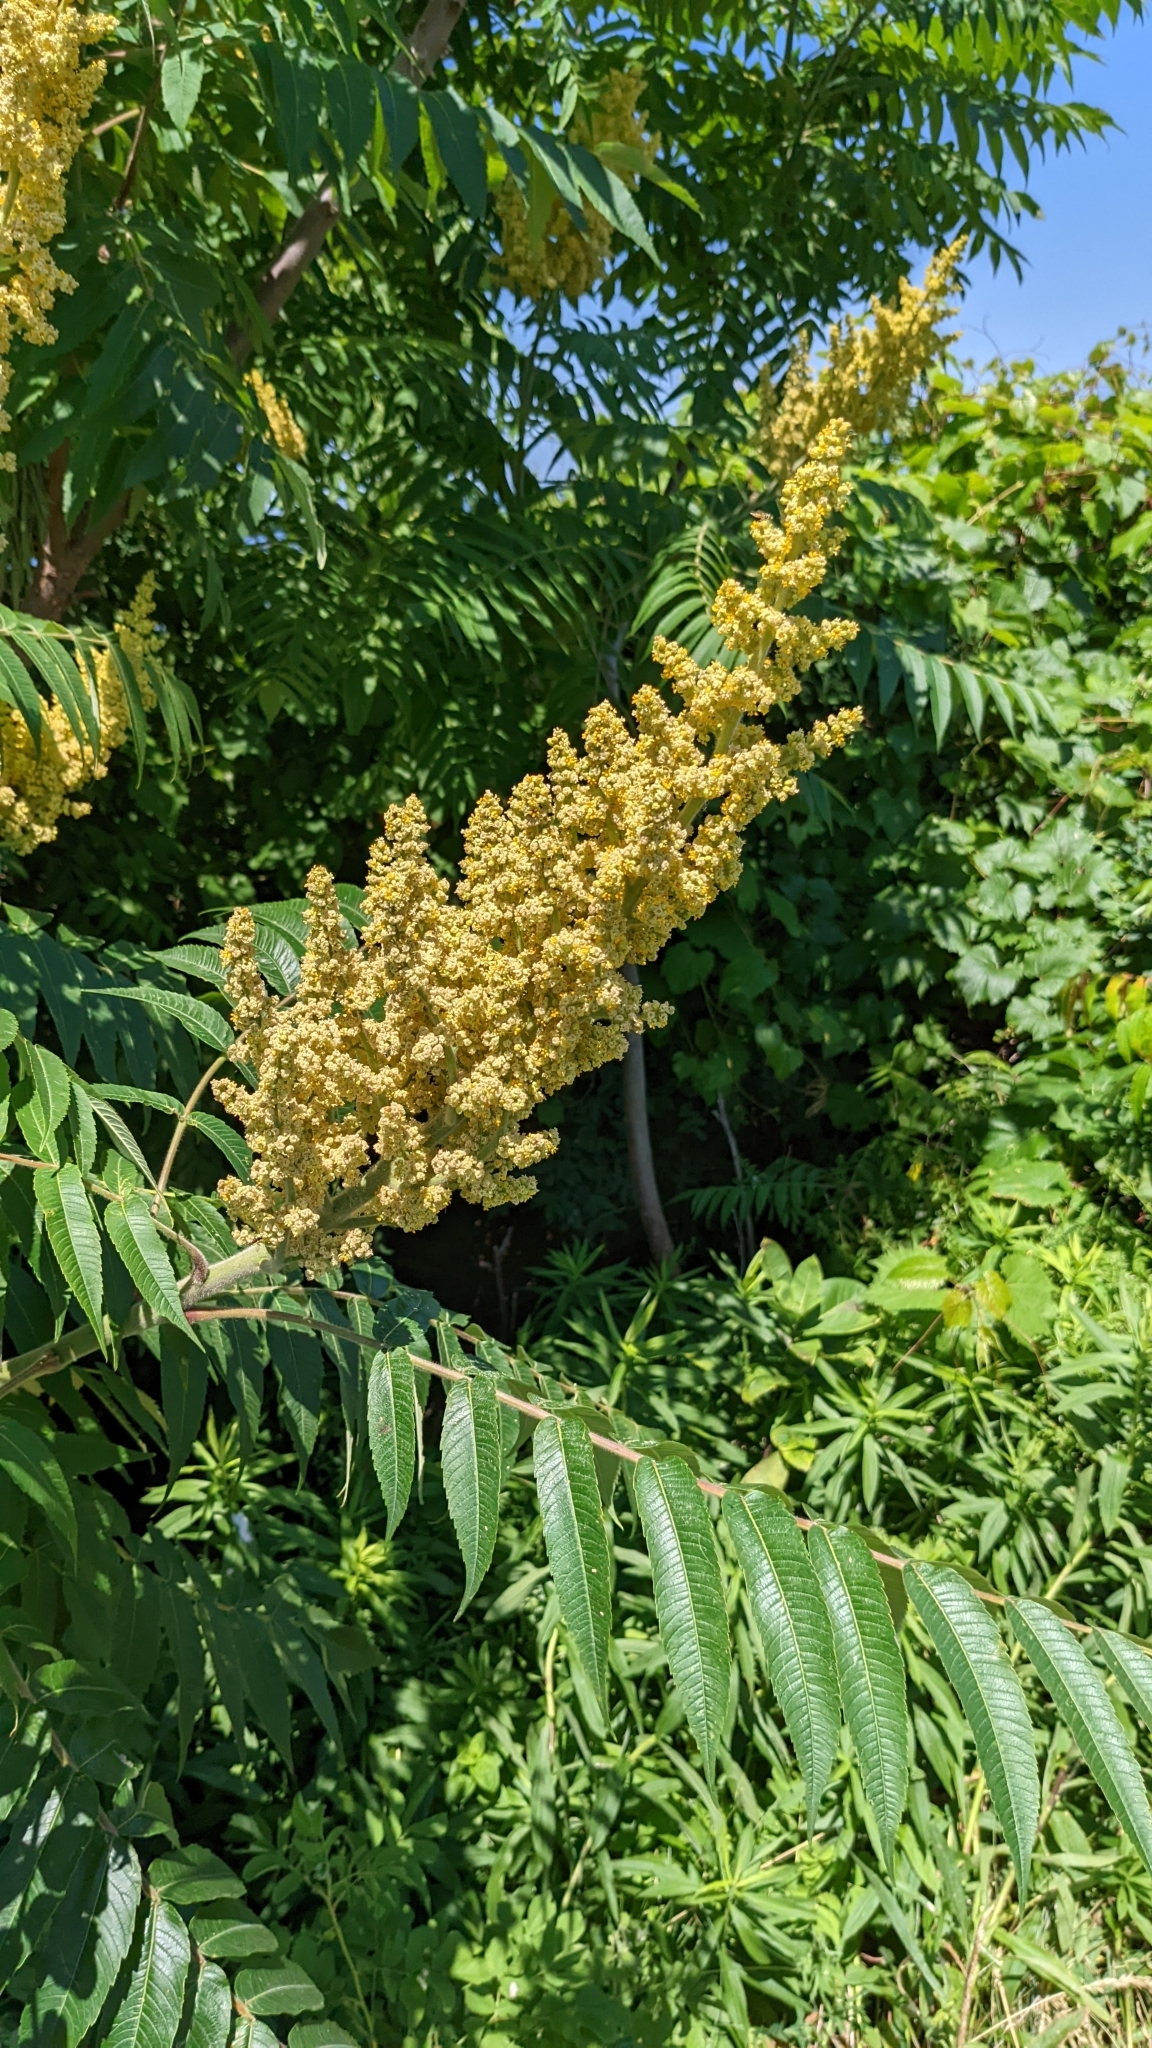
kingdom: Plantae
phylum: Tracheophyta
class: Magnoliopsida
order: Sapindales
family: Anacardiaceae
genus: Rhus
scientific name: Rhus typhina
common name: Staghorn sumac
